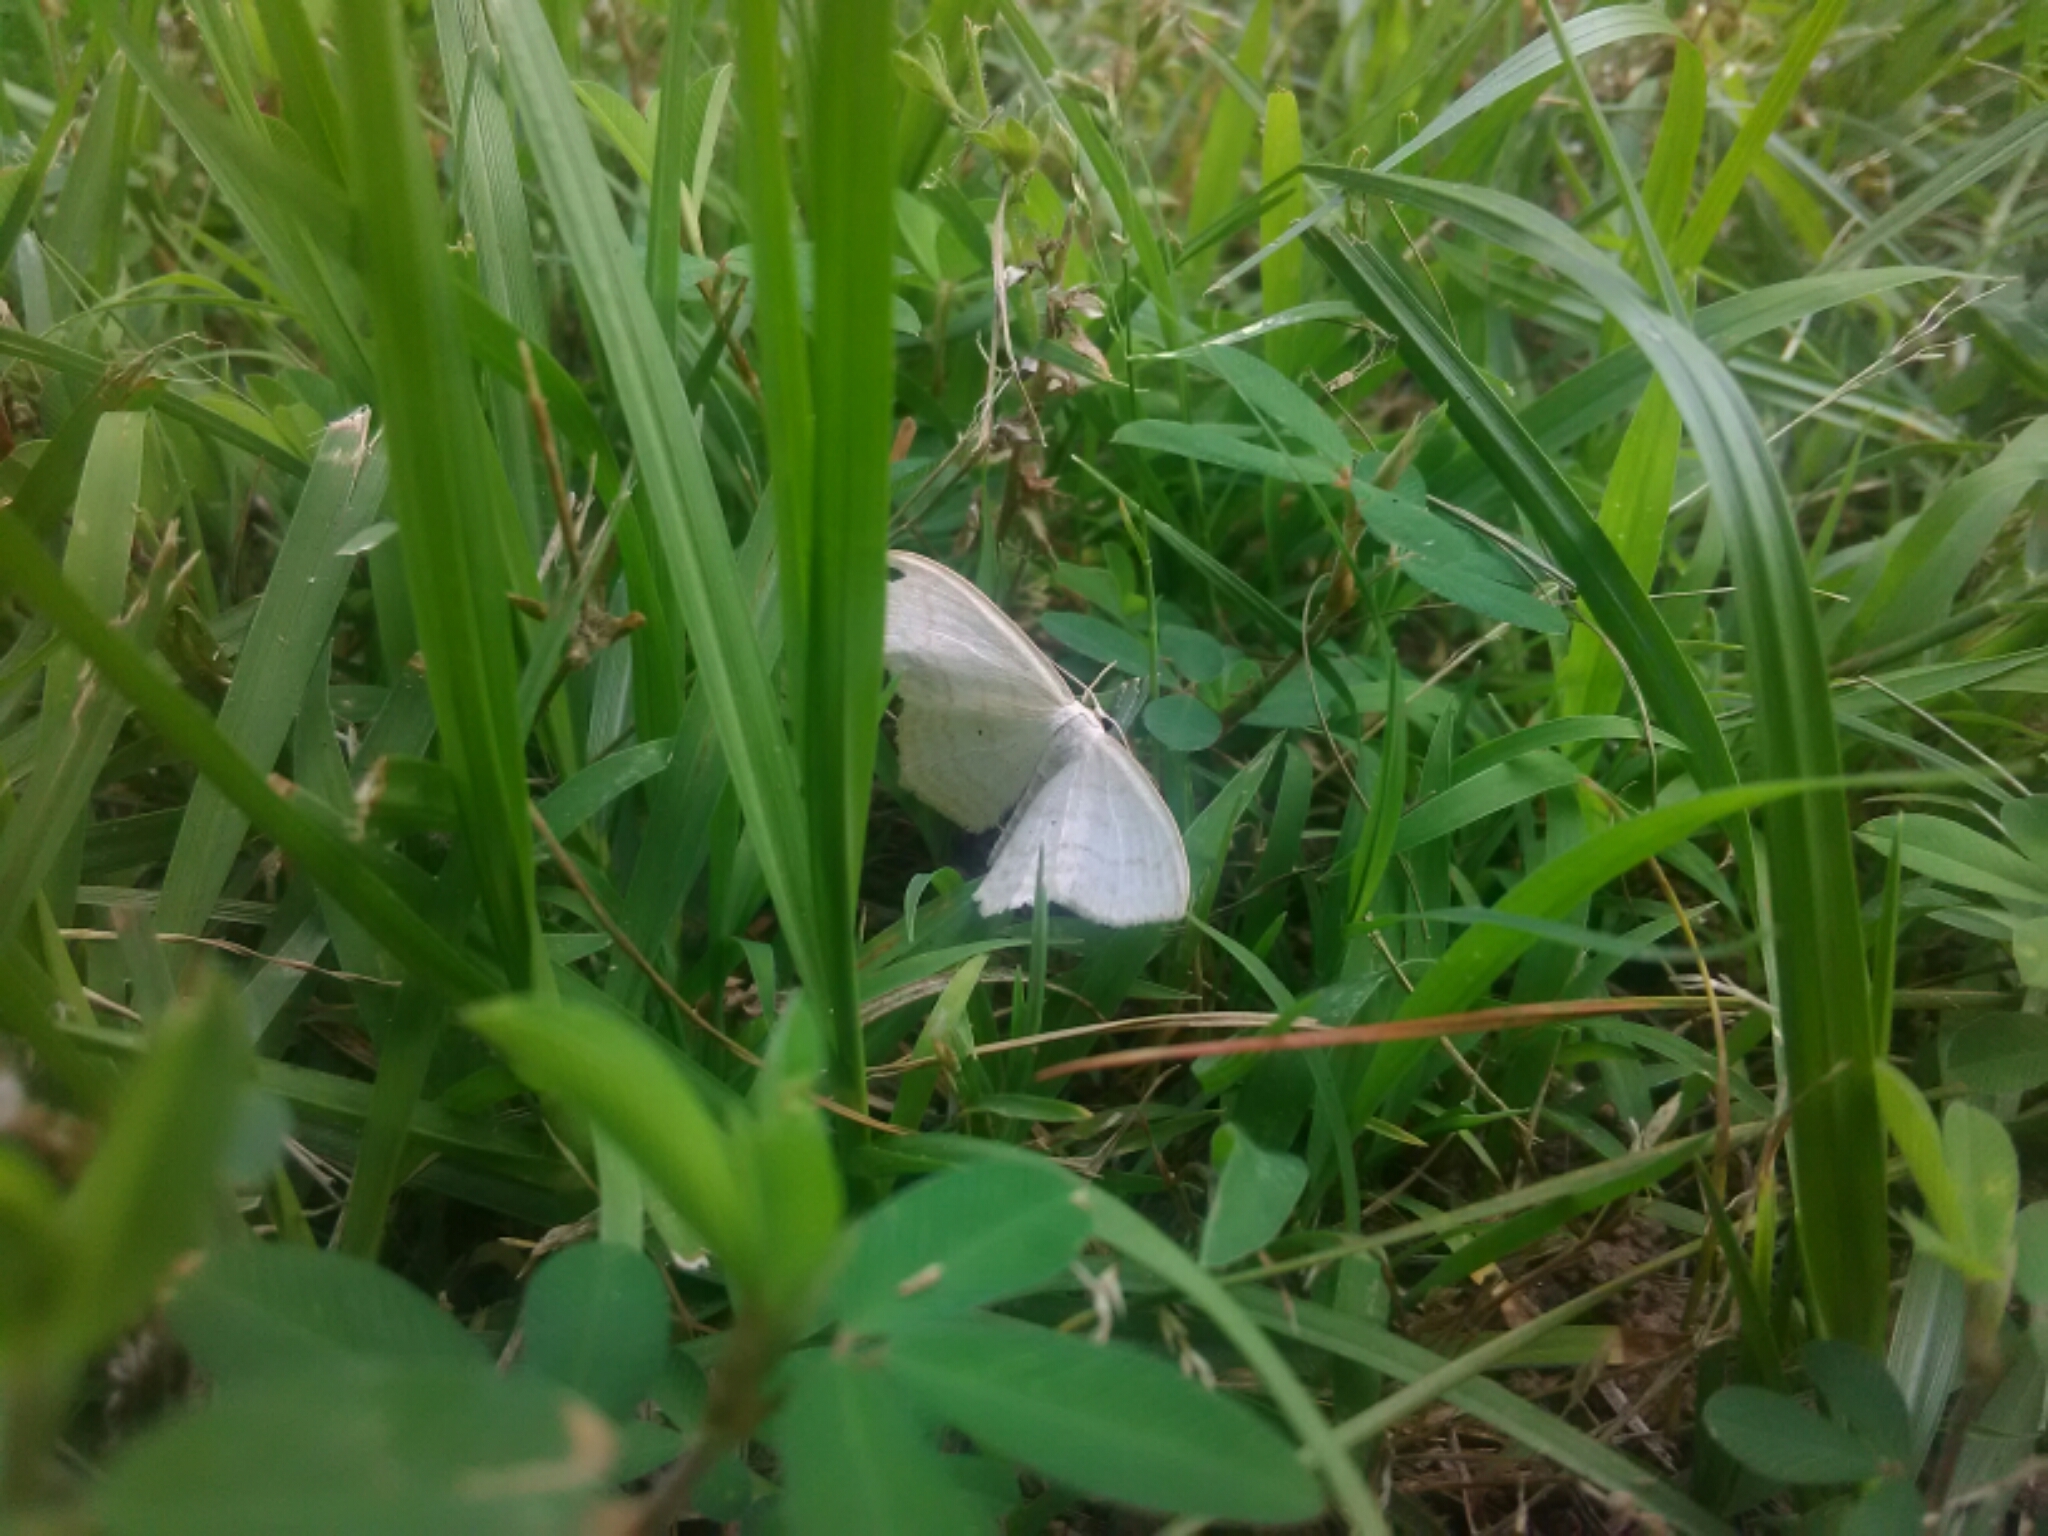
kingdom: Animalia
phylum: Arthropoda
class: Insecta
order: Lepidoptera
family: Geometridae
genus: Scopula
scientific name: Scopula limboundata
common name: Large lace border
